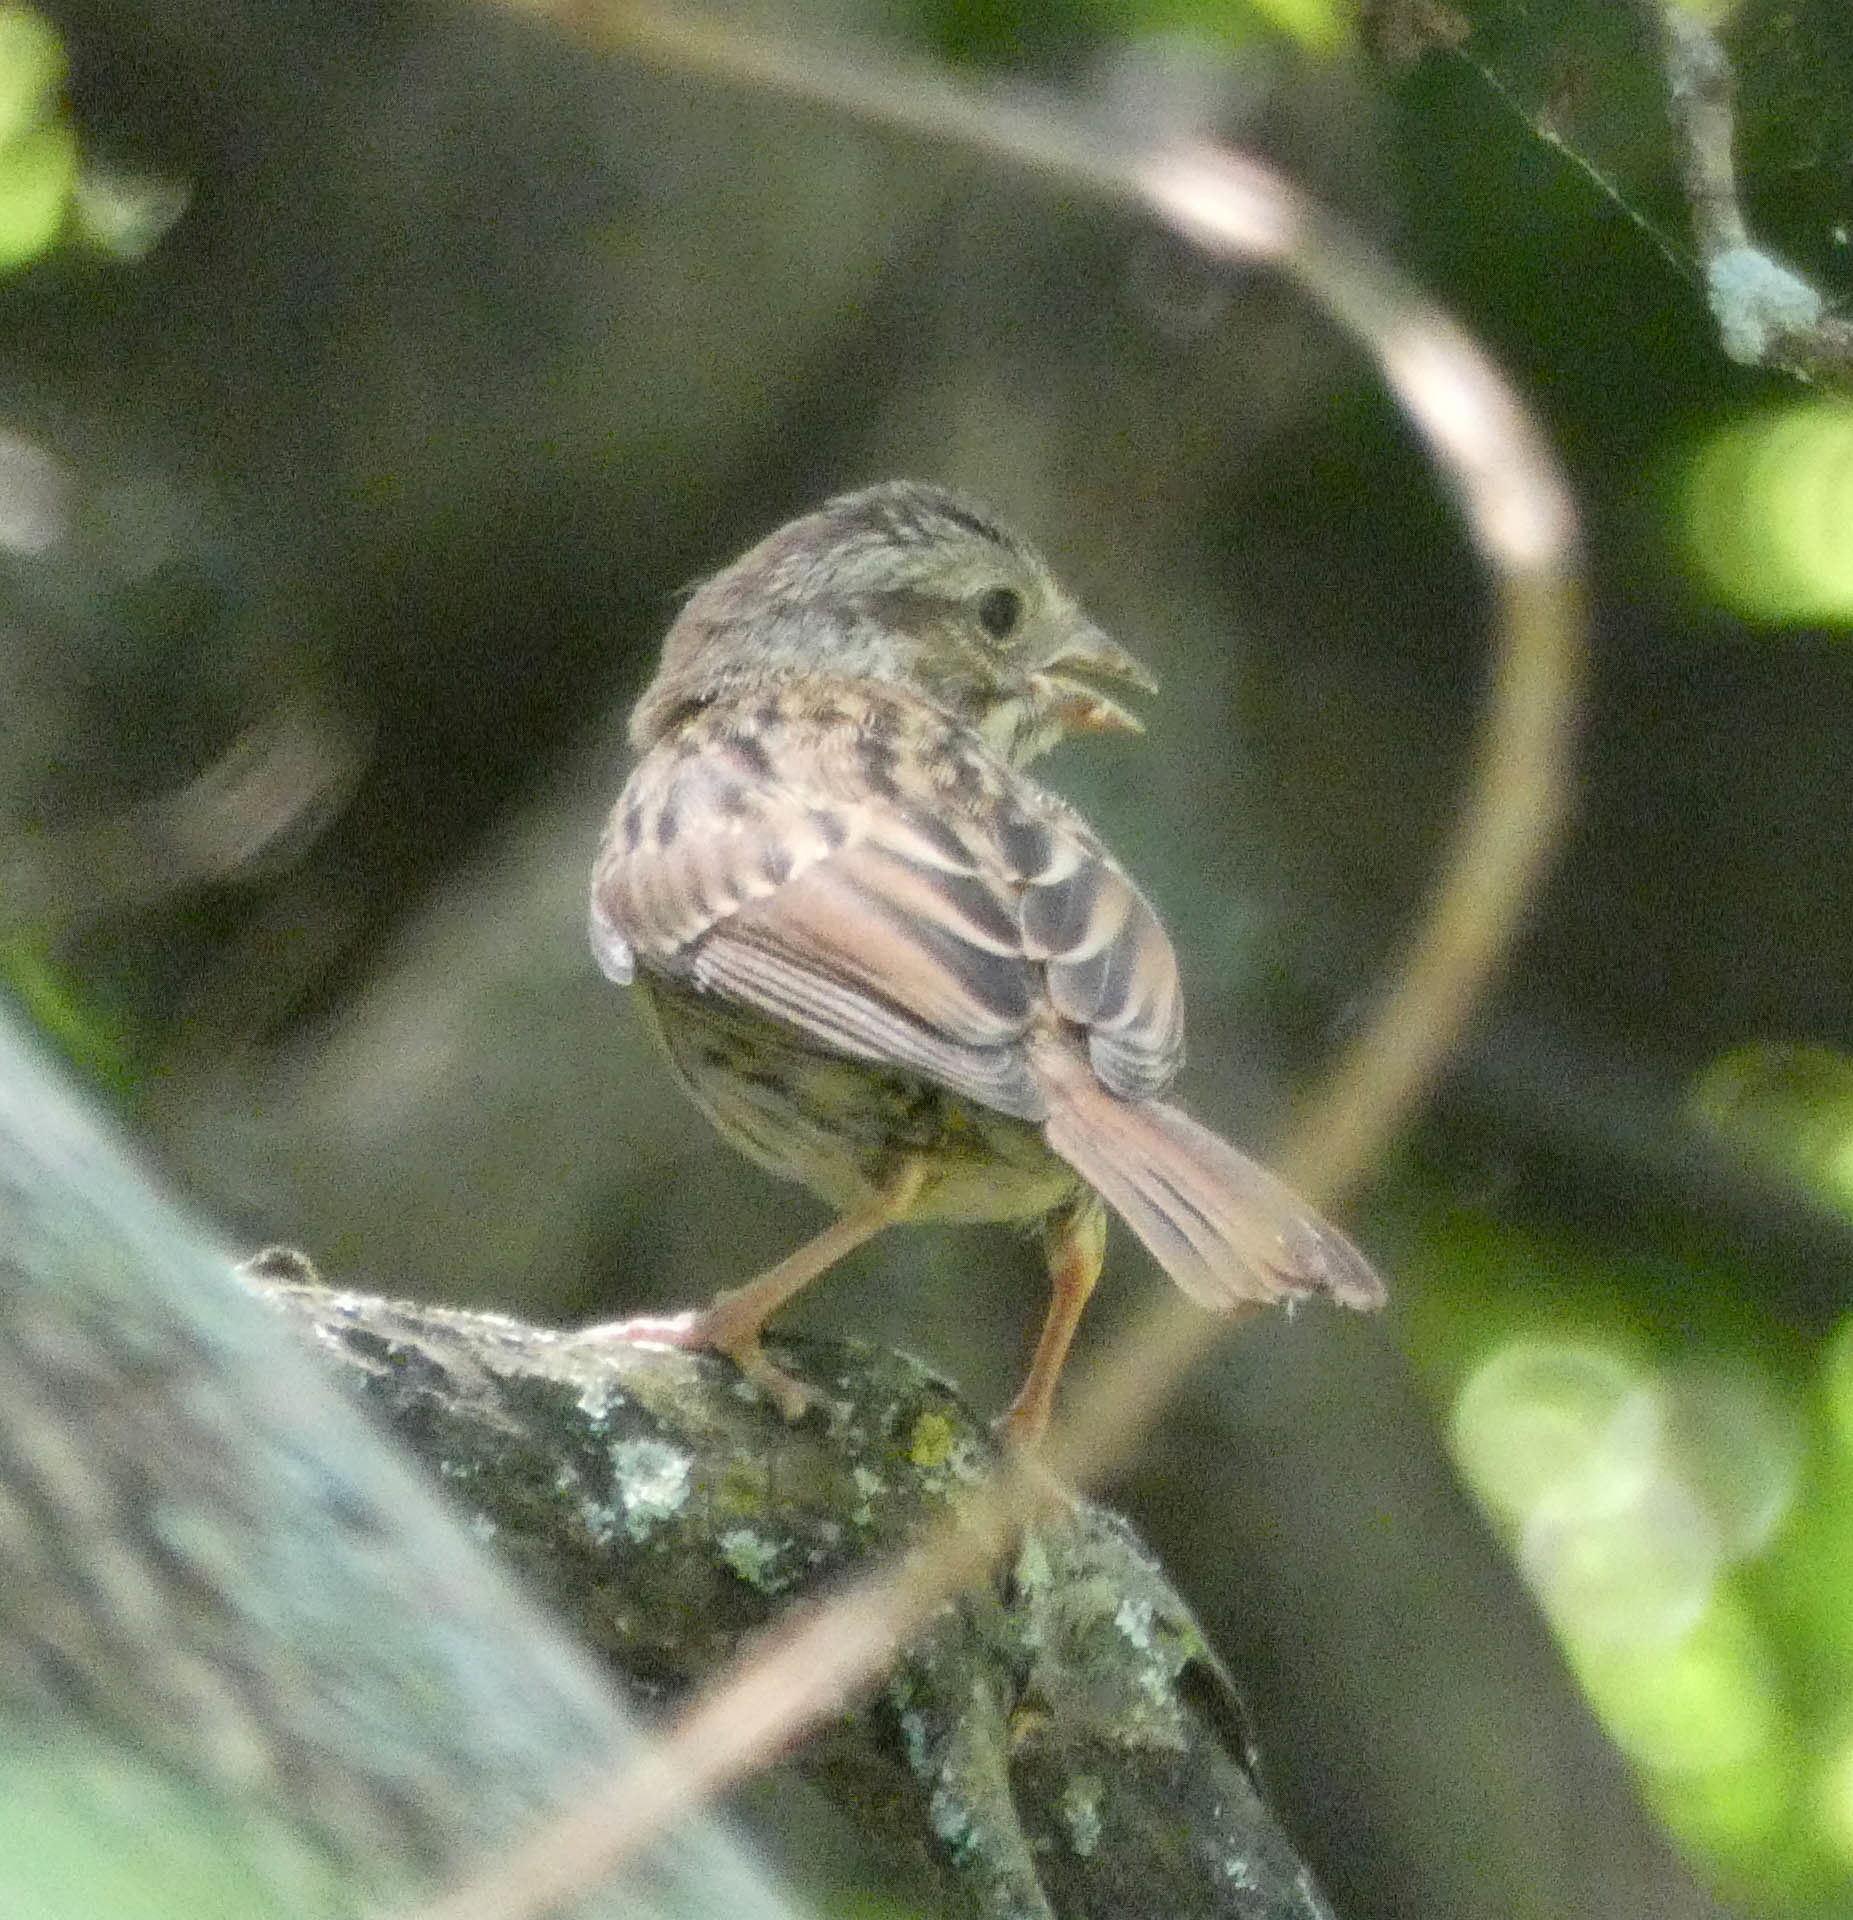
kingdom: Animalia
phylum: Chordata
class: Aves
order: Passeriformes
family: Passerellidae
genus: Melospiza
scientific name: Melospiza melodia
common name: Song sparrow
